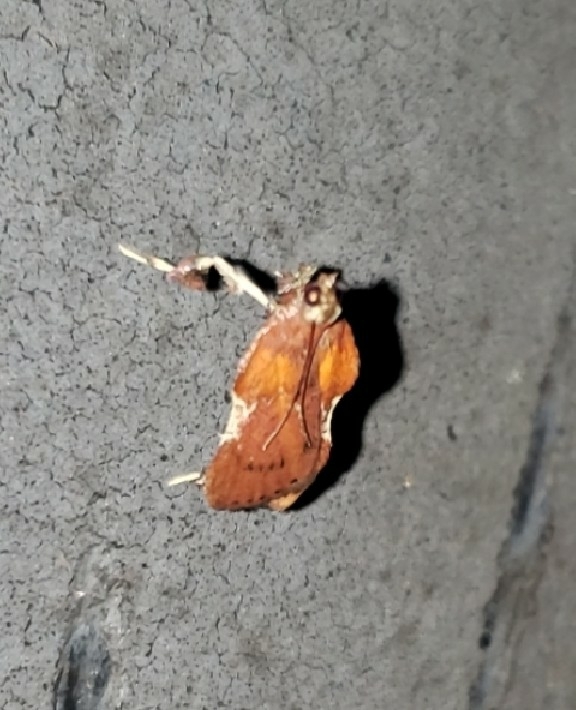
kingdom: Animalia
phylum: Arthropoda
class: Insecta
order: Lepidoptera
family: Pyralidae
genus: Galasa
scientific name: Galasa nigrinodis
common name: Boxwood leaftier moth
